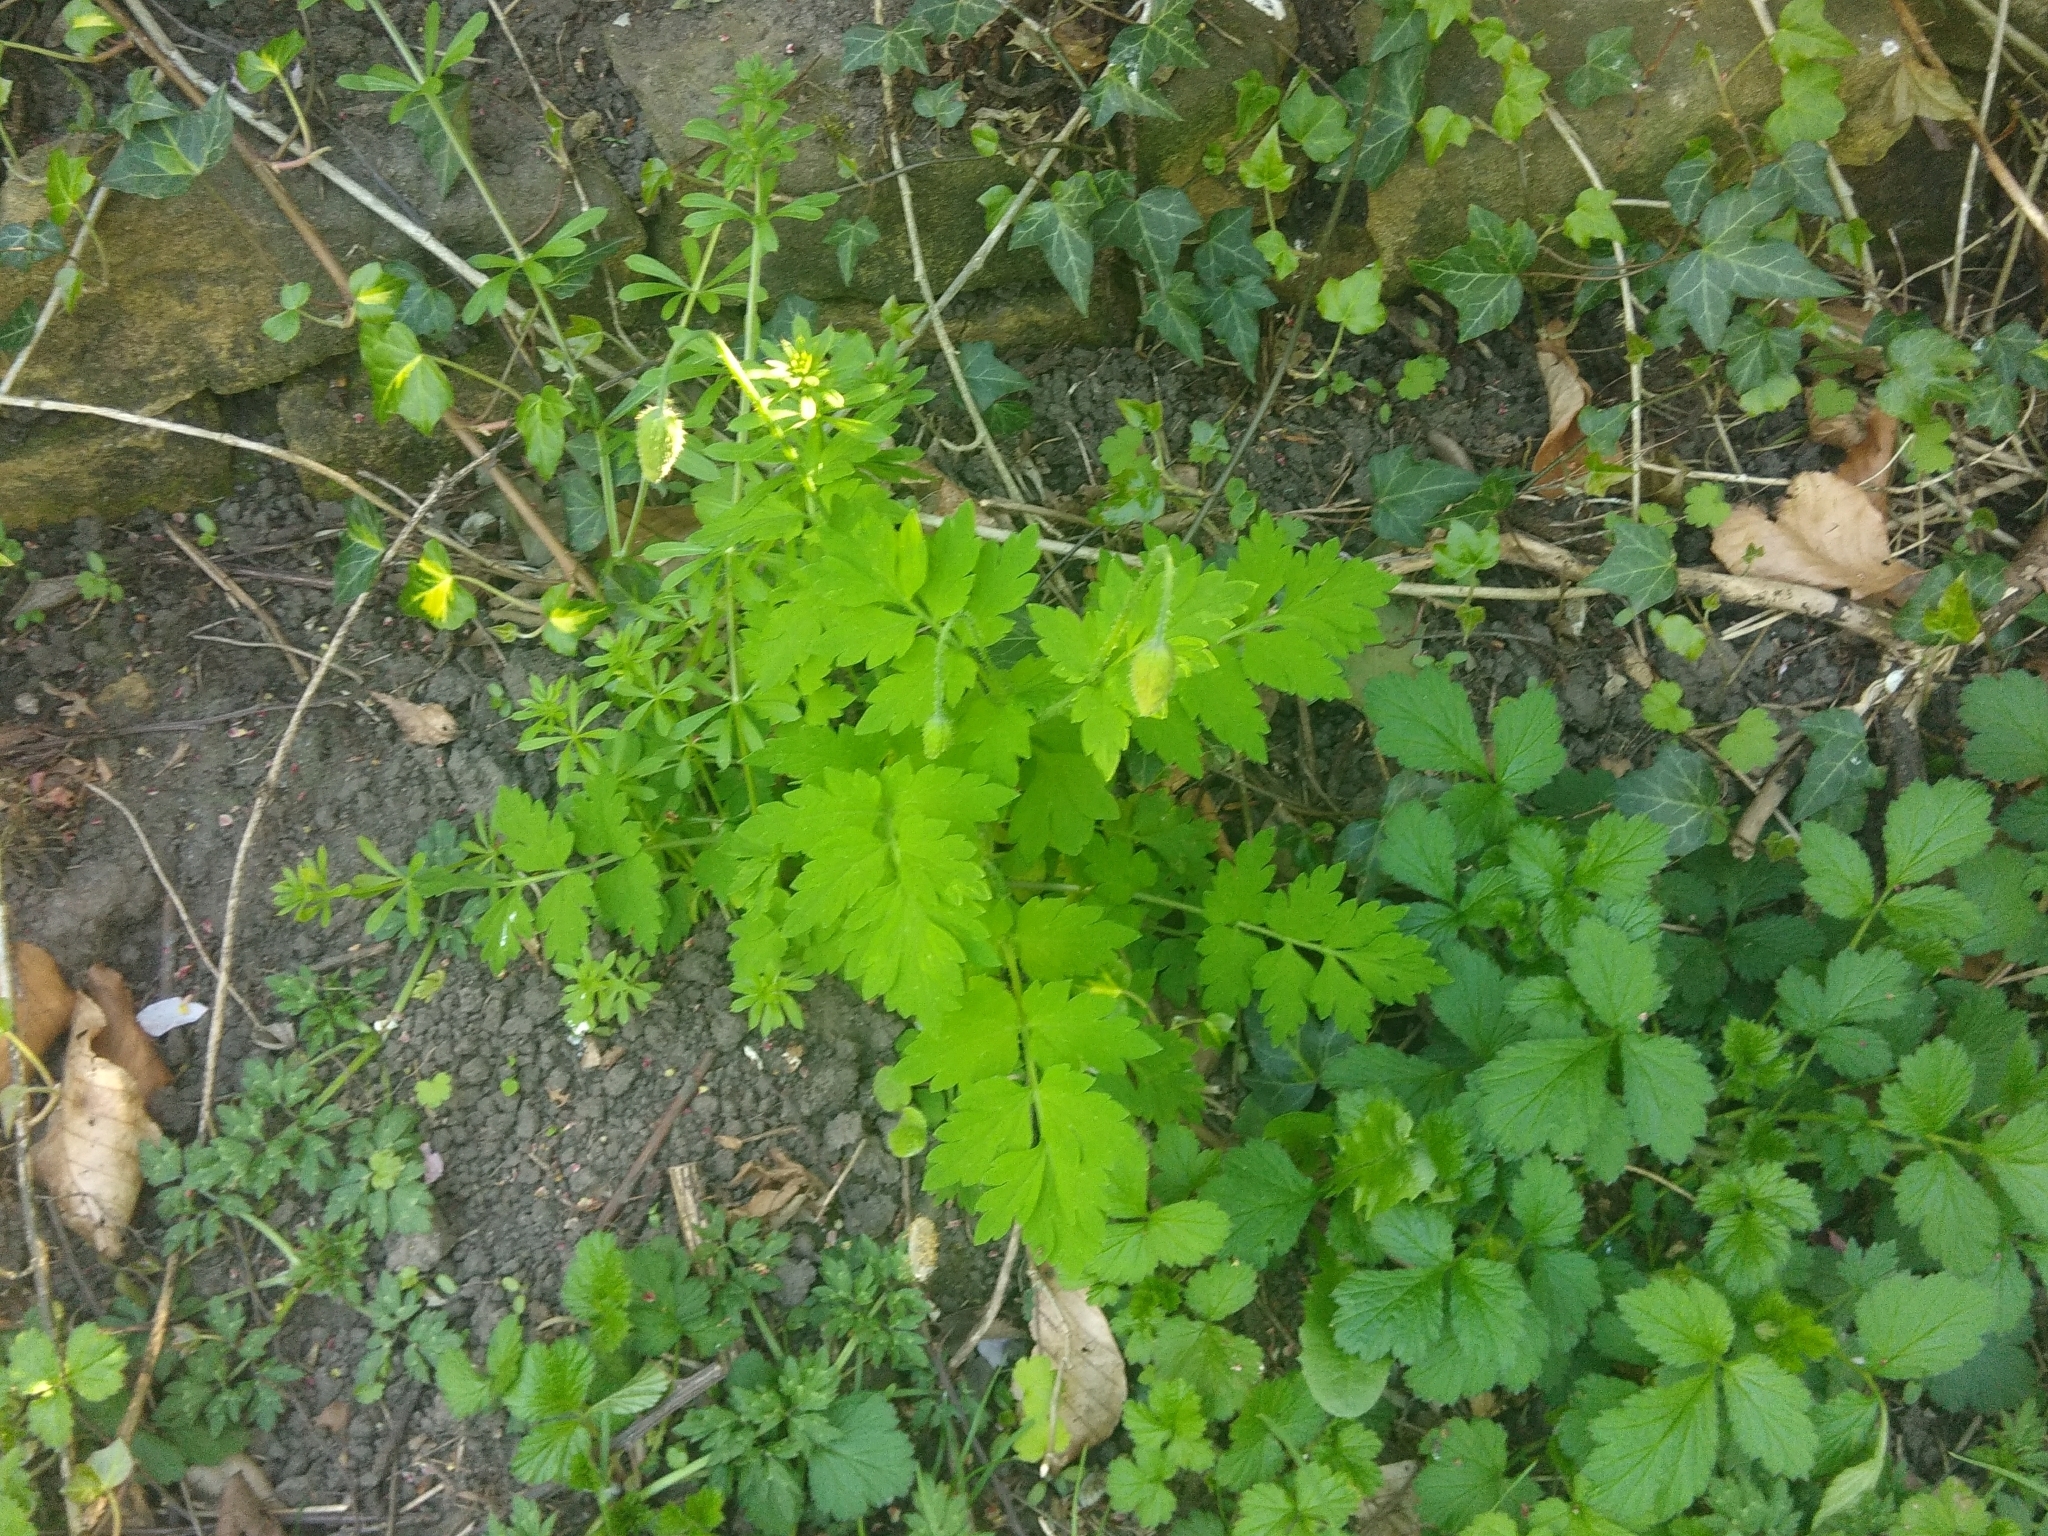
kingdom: Plantae
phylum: Tracheophyta
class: Magnoliopsida
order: Ranunculales
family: Papaveraceae
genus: Papaver
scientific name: Papaver cambricum
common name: Poppy
